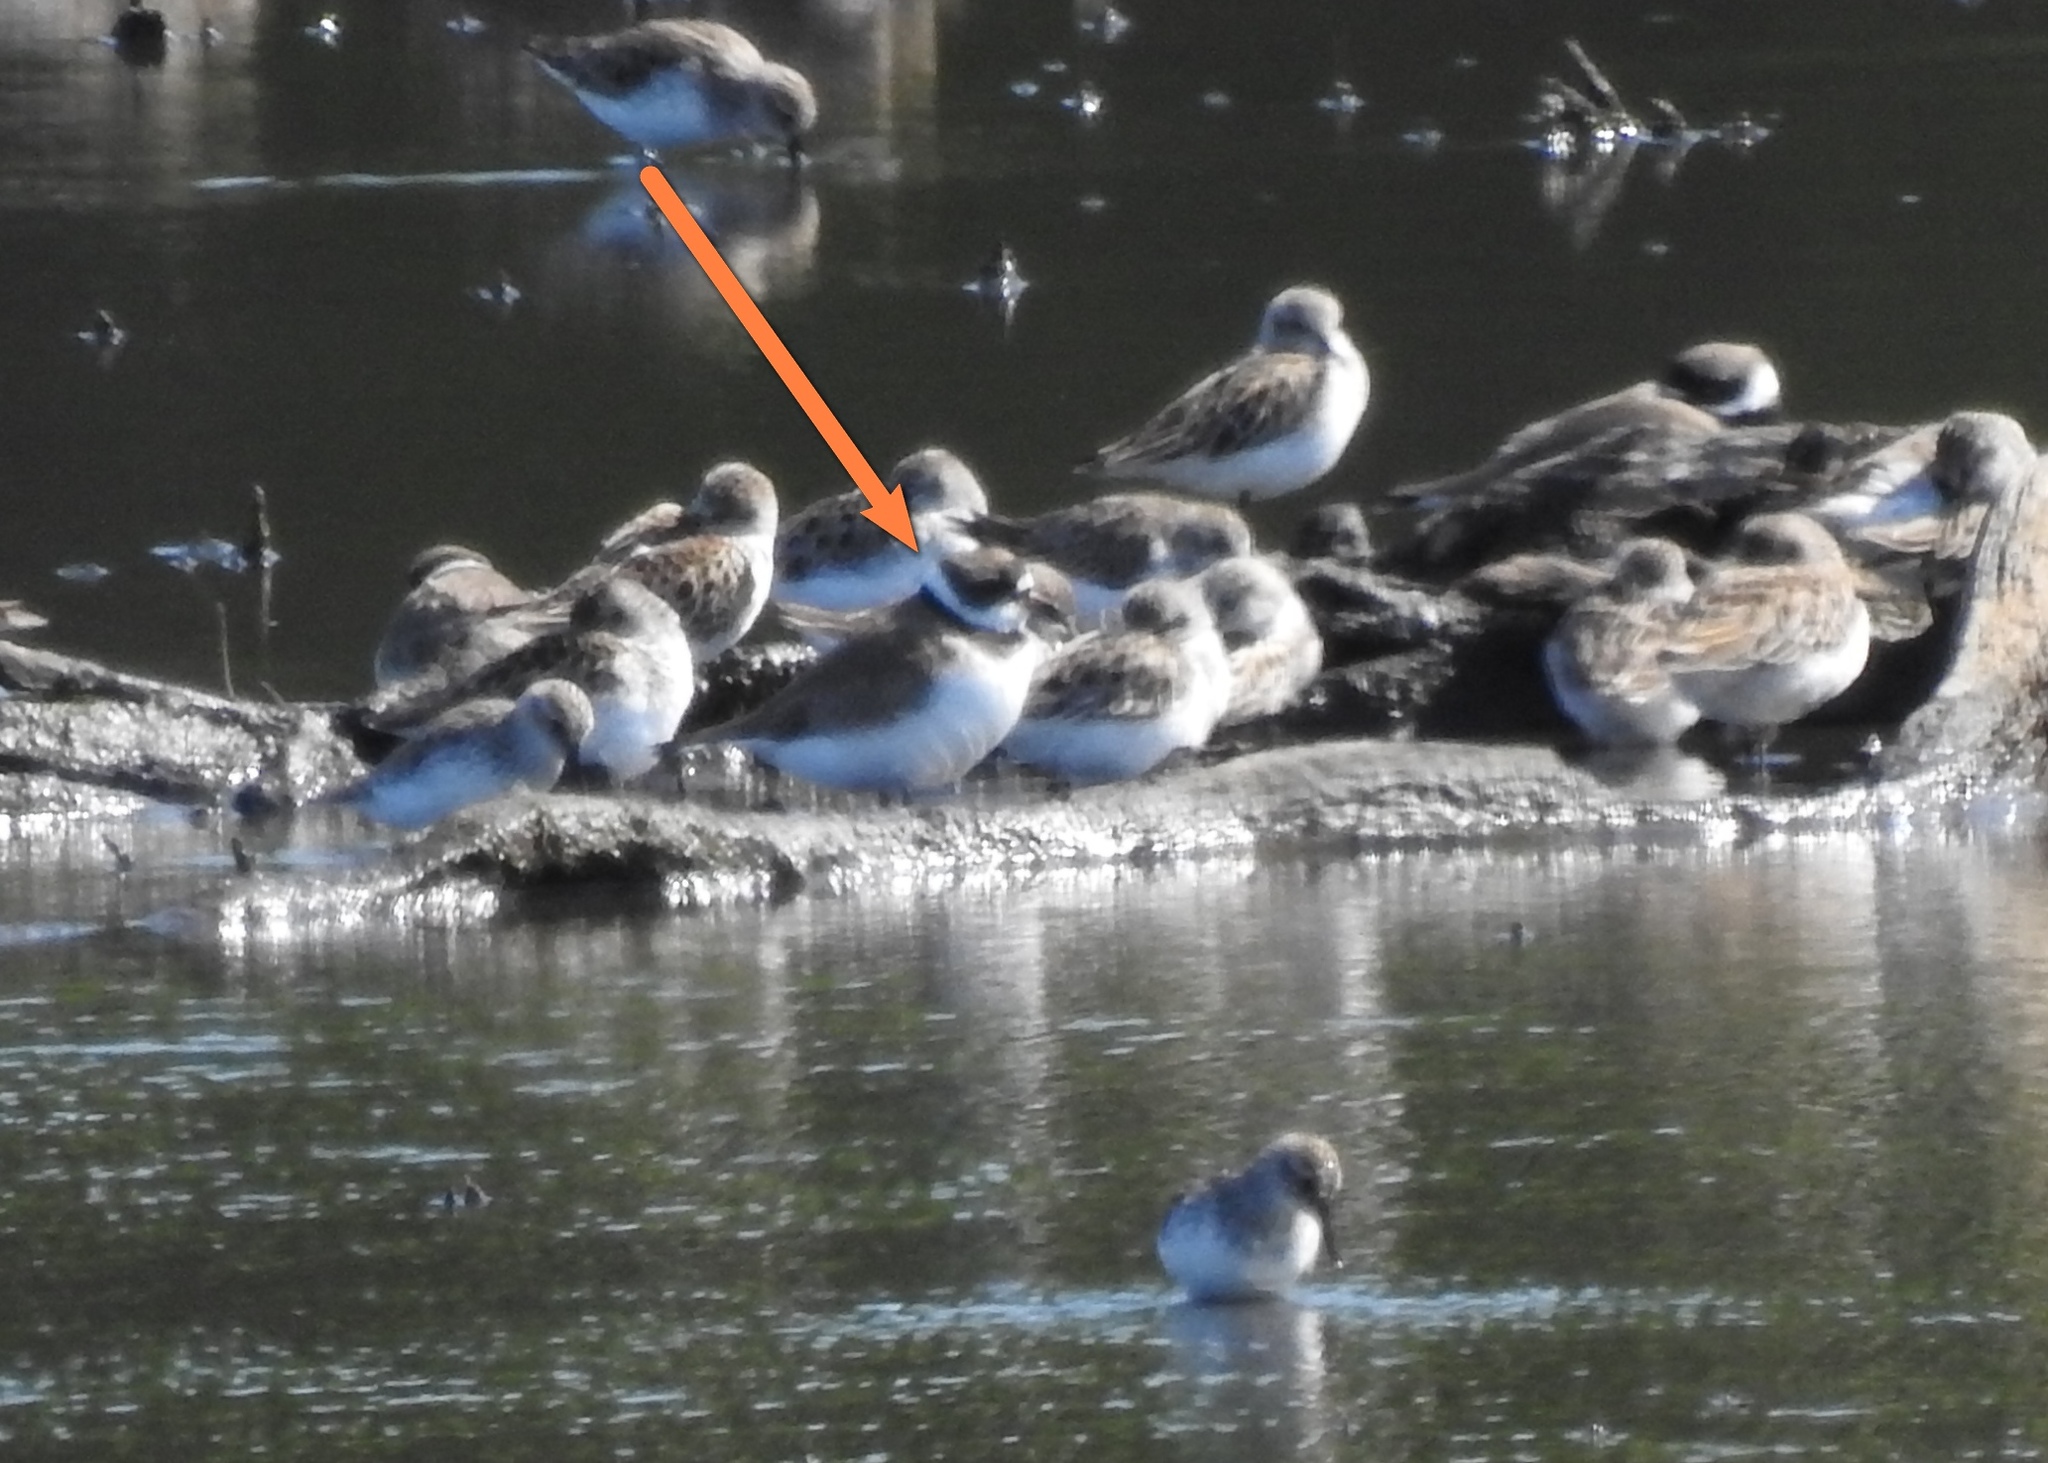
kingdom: Animalia
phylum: Chordata
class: Aves
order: Charadriiformes
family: Charadriidae
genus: Charadrius
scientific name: Charadrius semipalmatus
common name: Semipalmated plover
